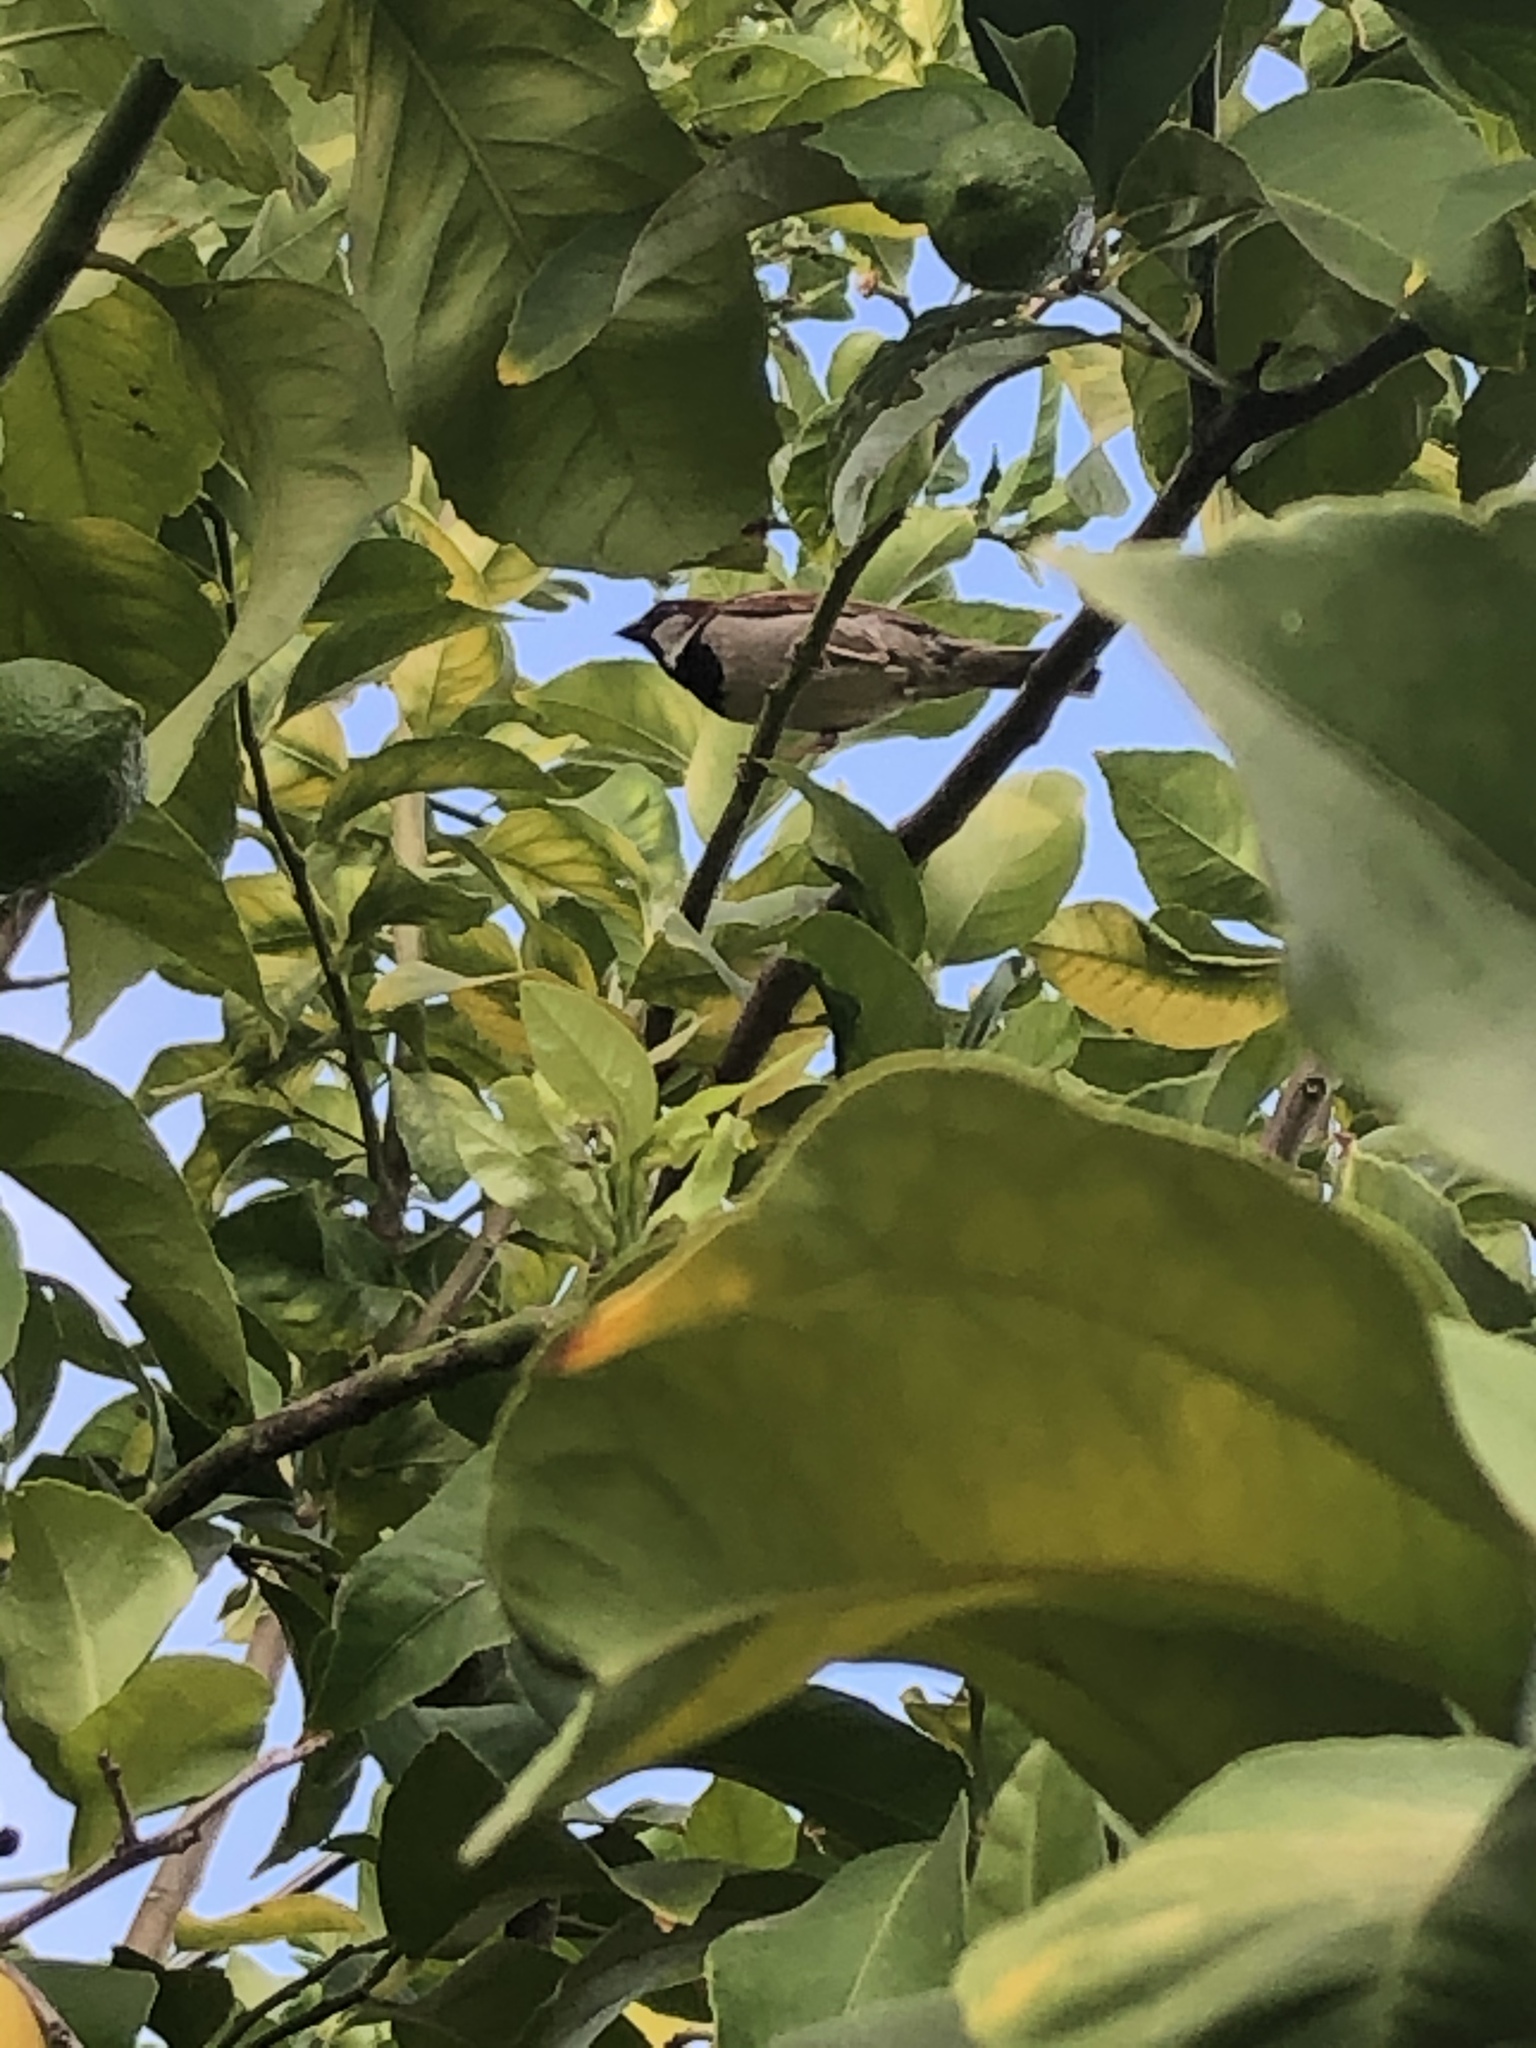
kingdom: Animalia
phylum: Chordata
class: Aves
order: Passeriformes
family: Passeridae
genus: Passer
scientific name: Passer domesticus
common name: House sparrow
